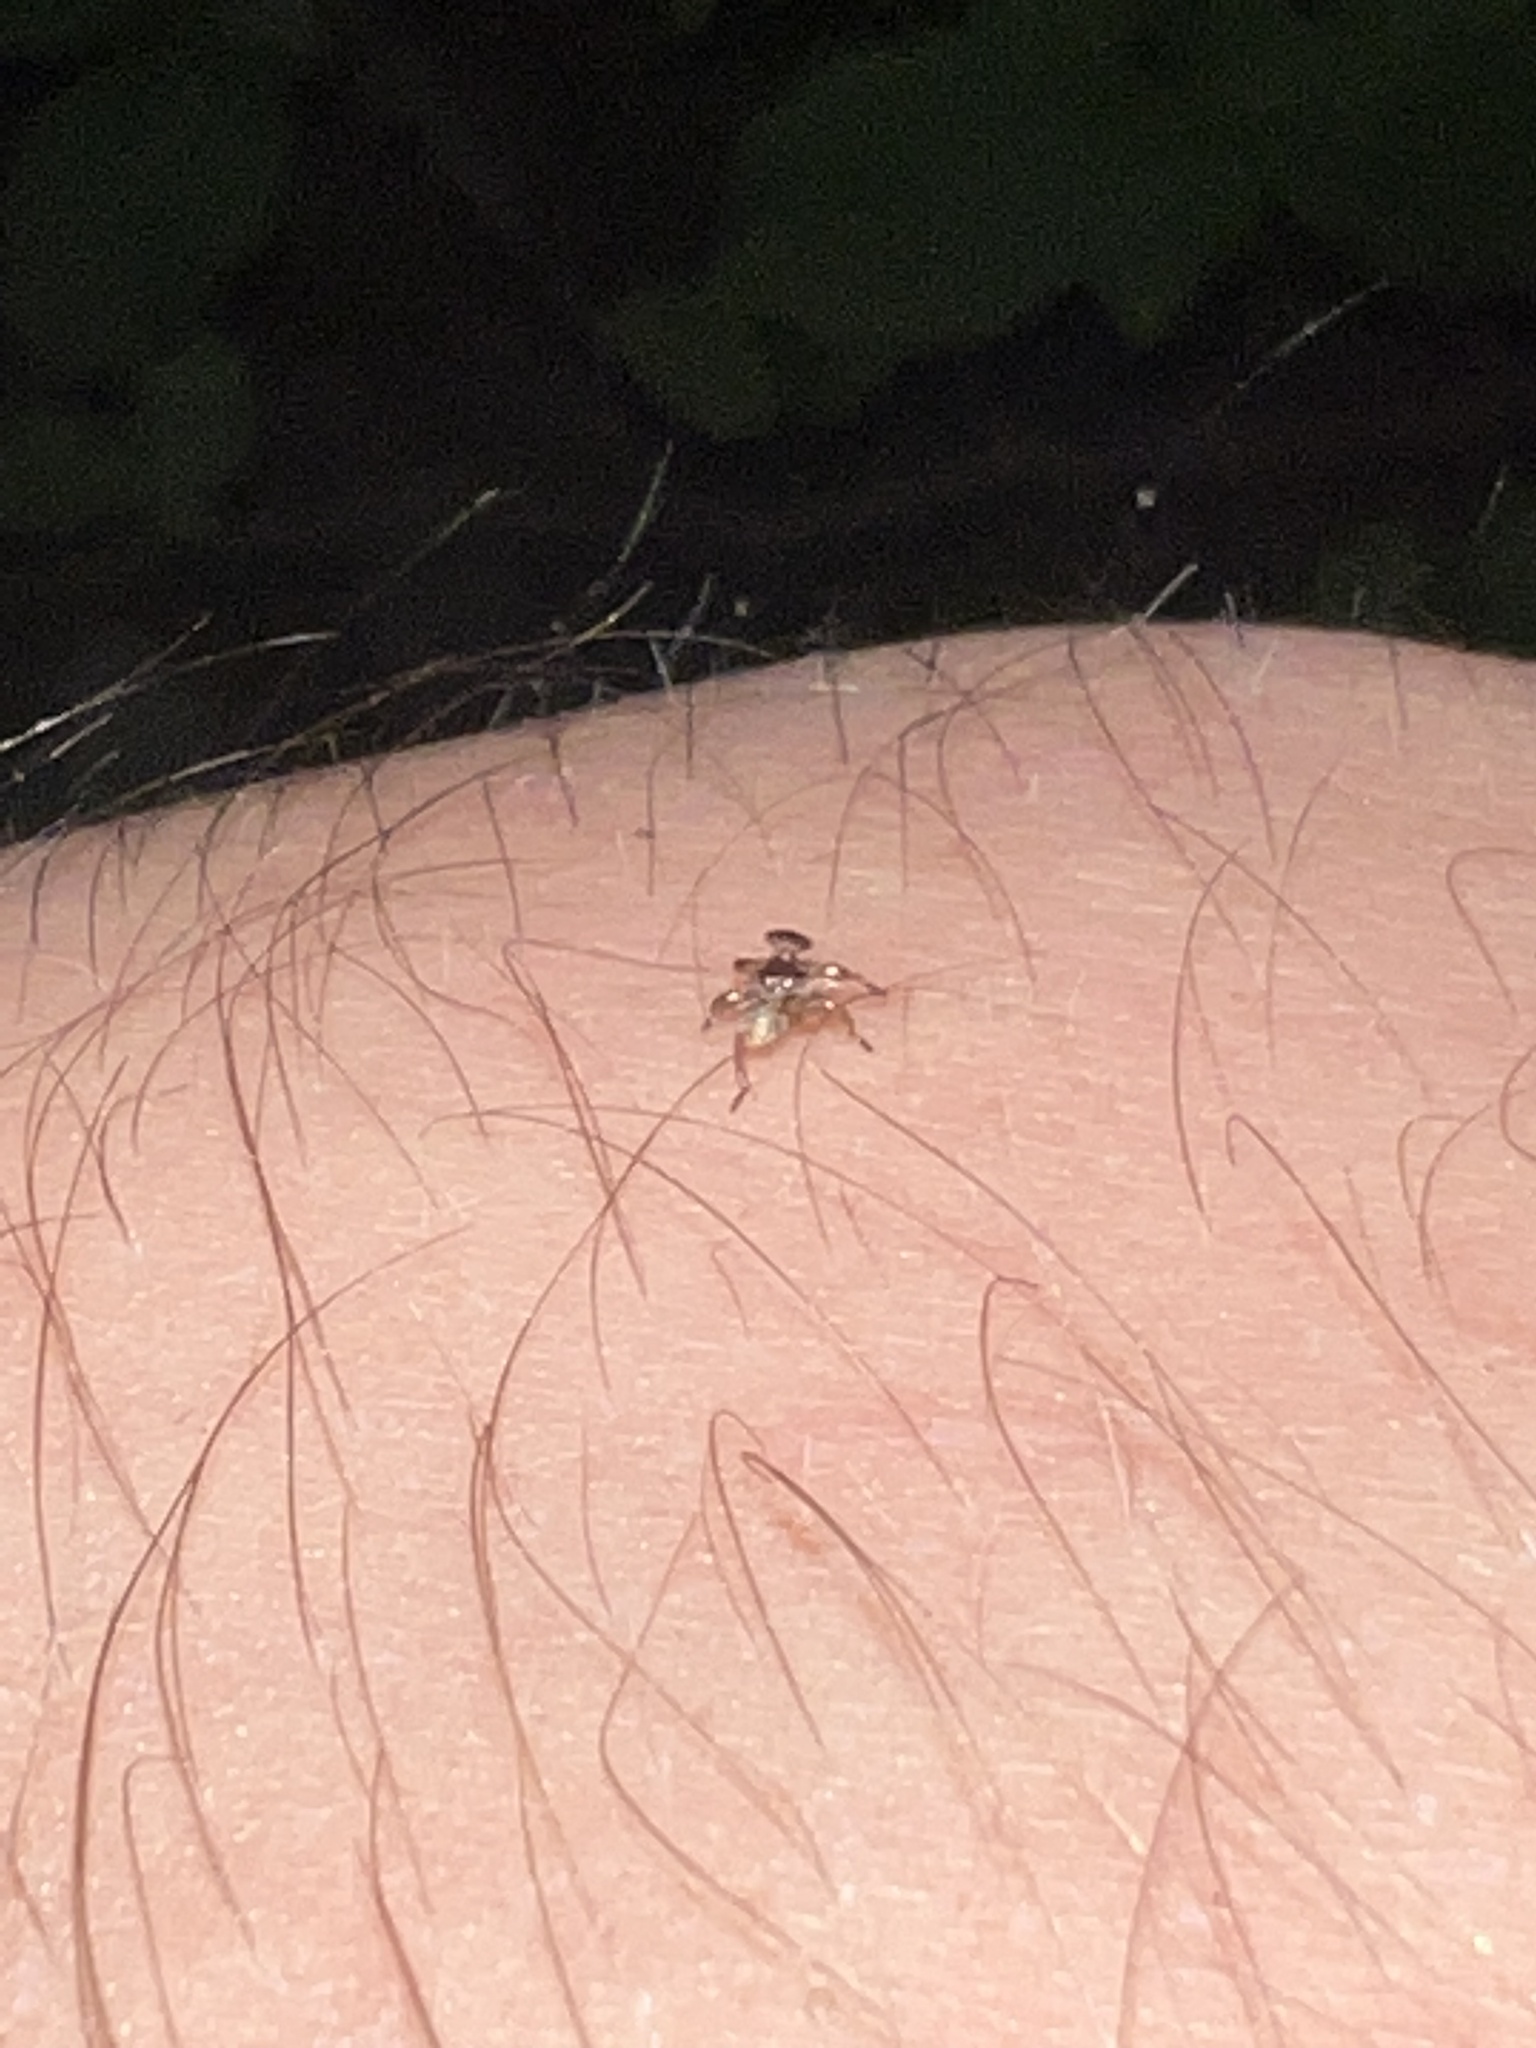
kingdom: Animalia
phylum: Arthropoda
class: Insecta
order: Diptera
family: Hippoboscidae
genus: Lipoptena
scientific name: Lipoptena mazamae
